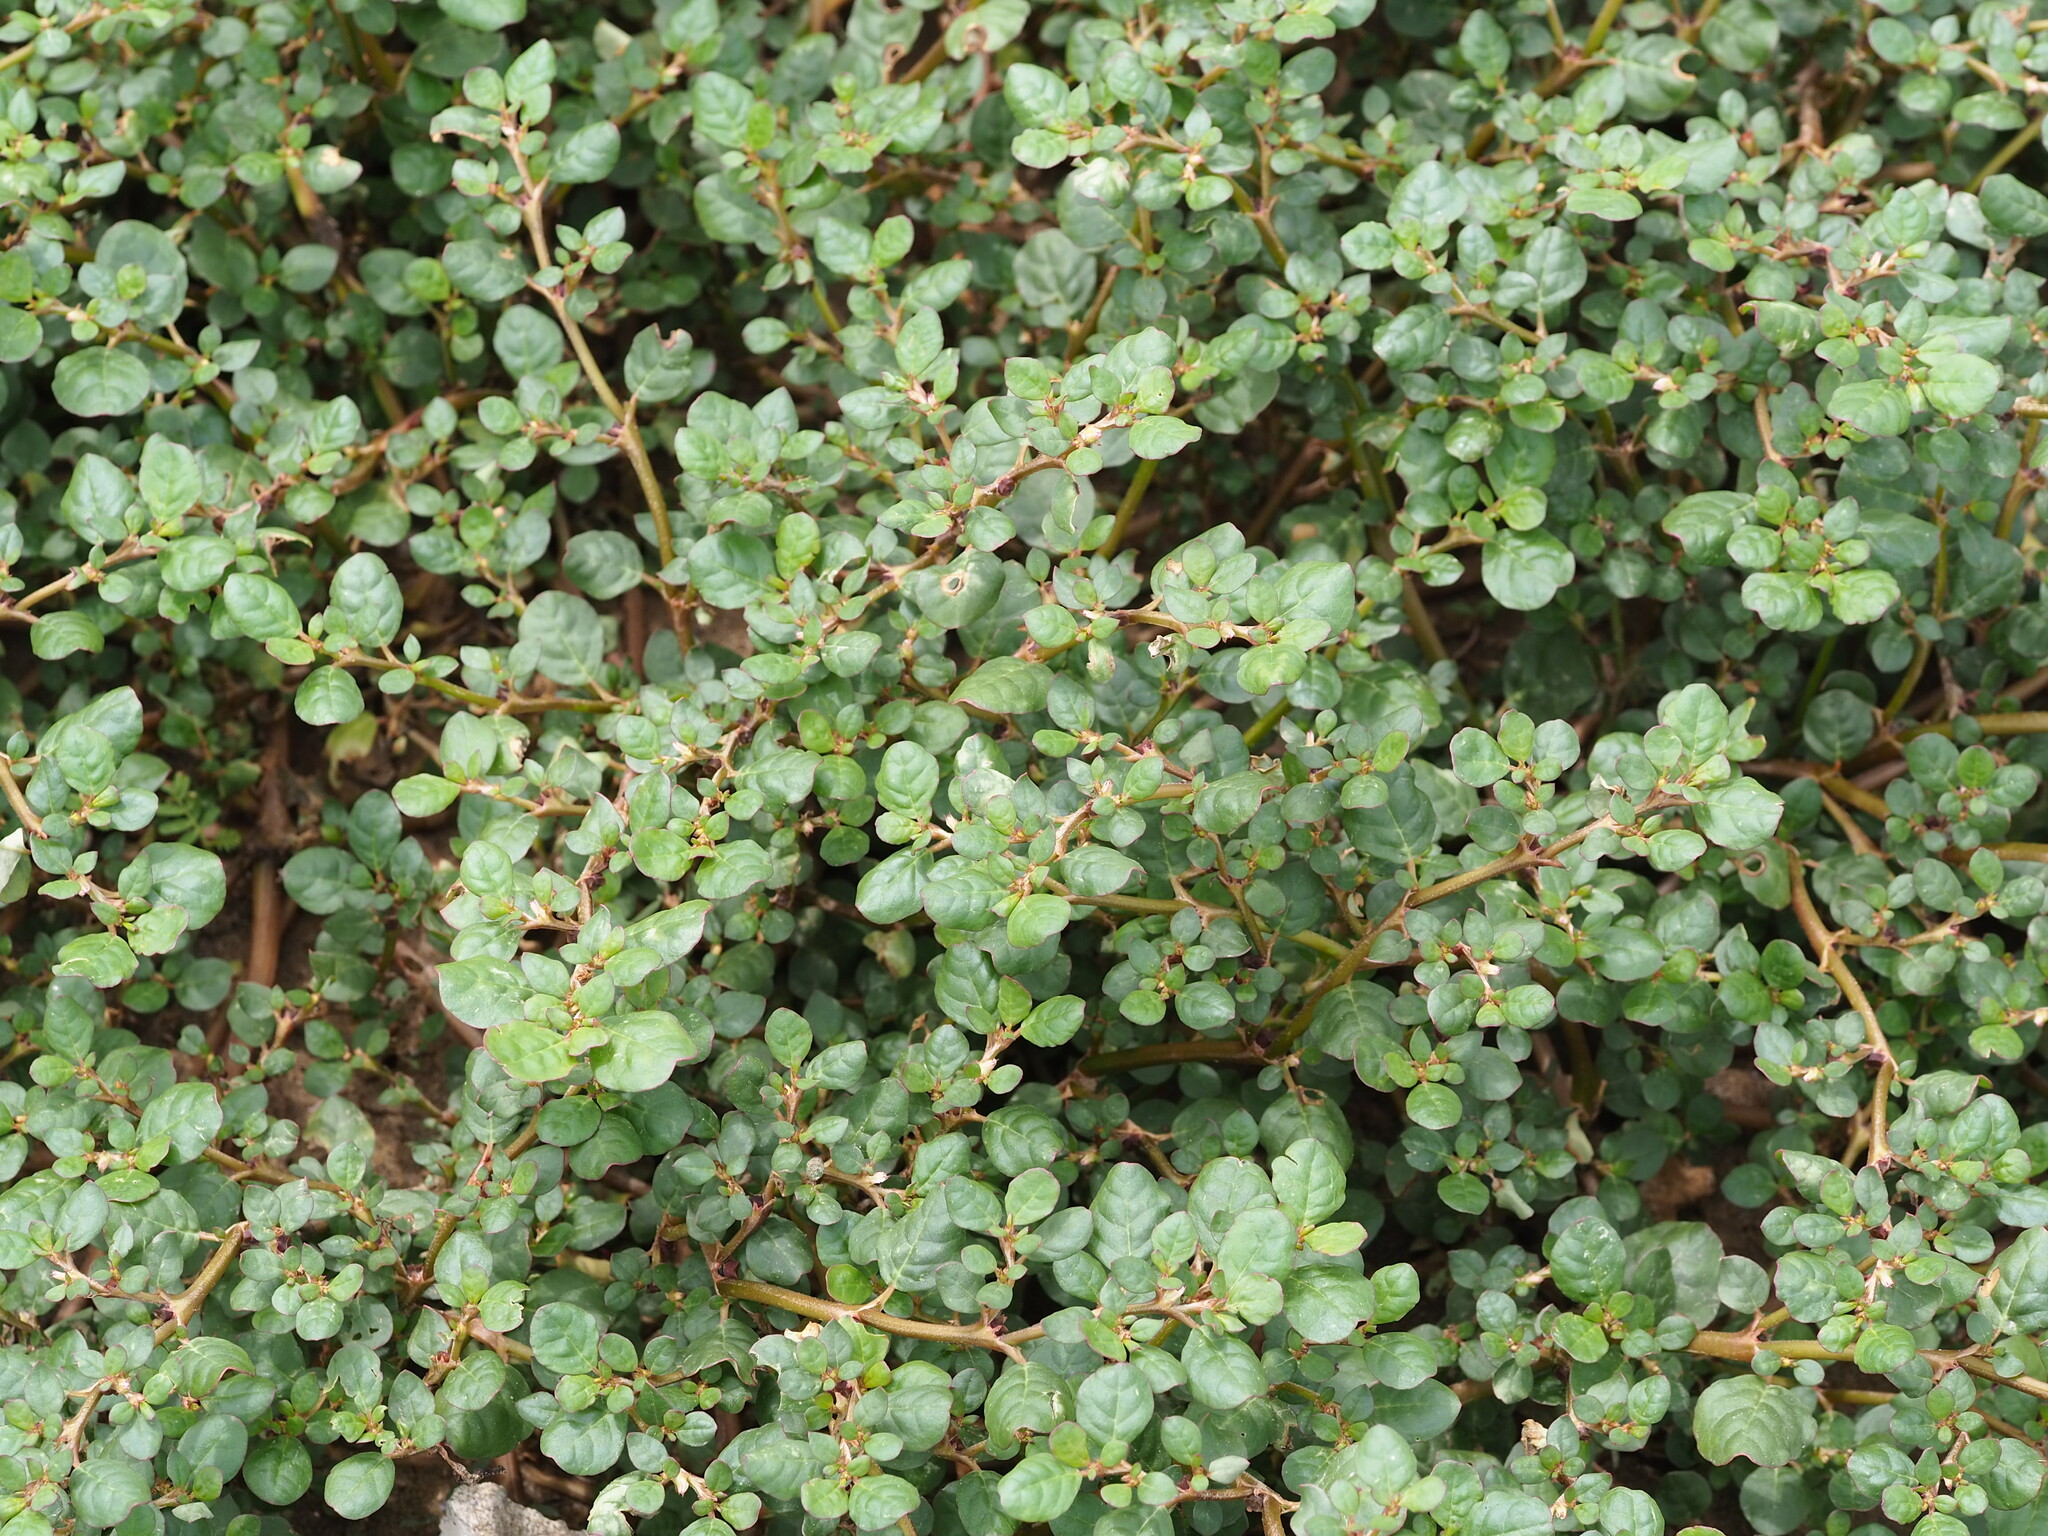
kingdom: Plantae
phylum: Tracheophyta
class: Magnoliopsida
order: Caryophyllales
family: Aizoaceae
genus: Trianthema
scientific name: Trianthema portulacastrum
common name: Desert horsepurslane
